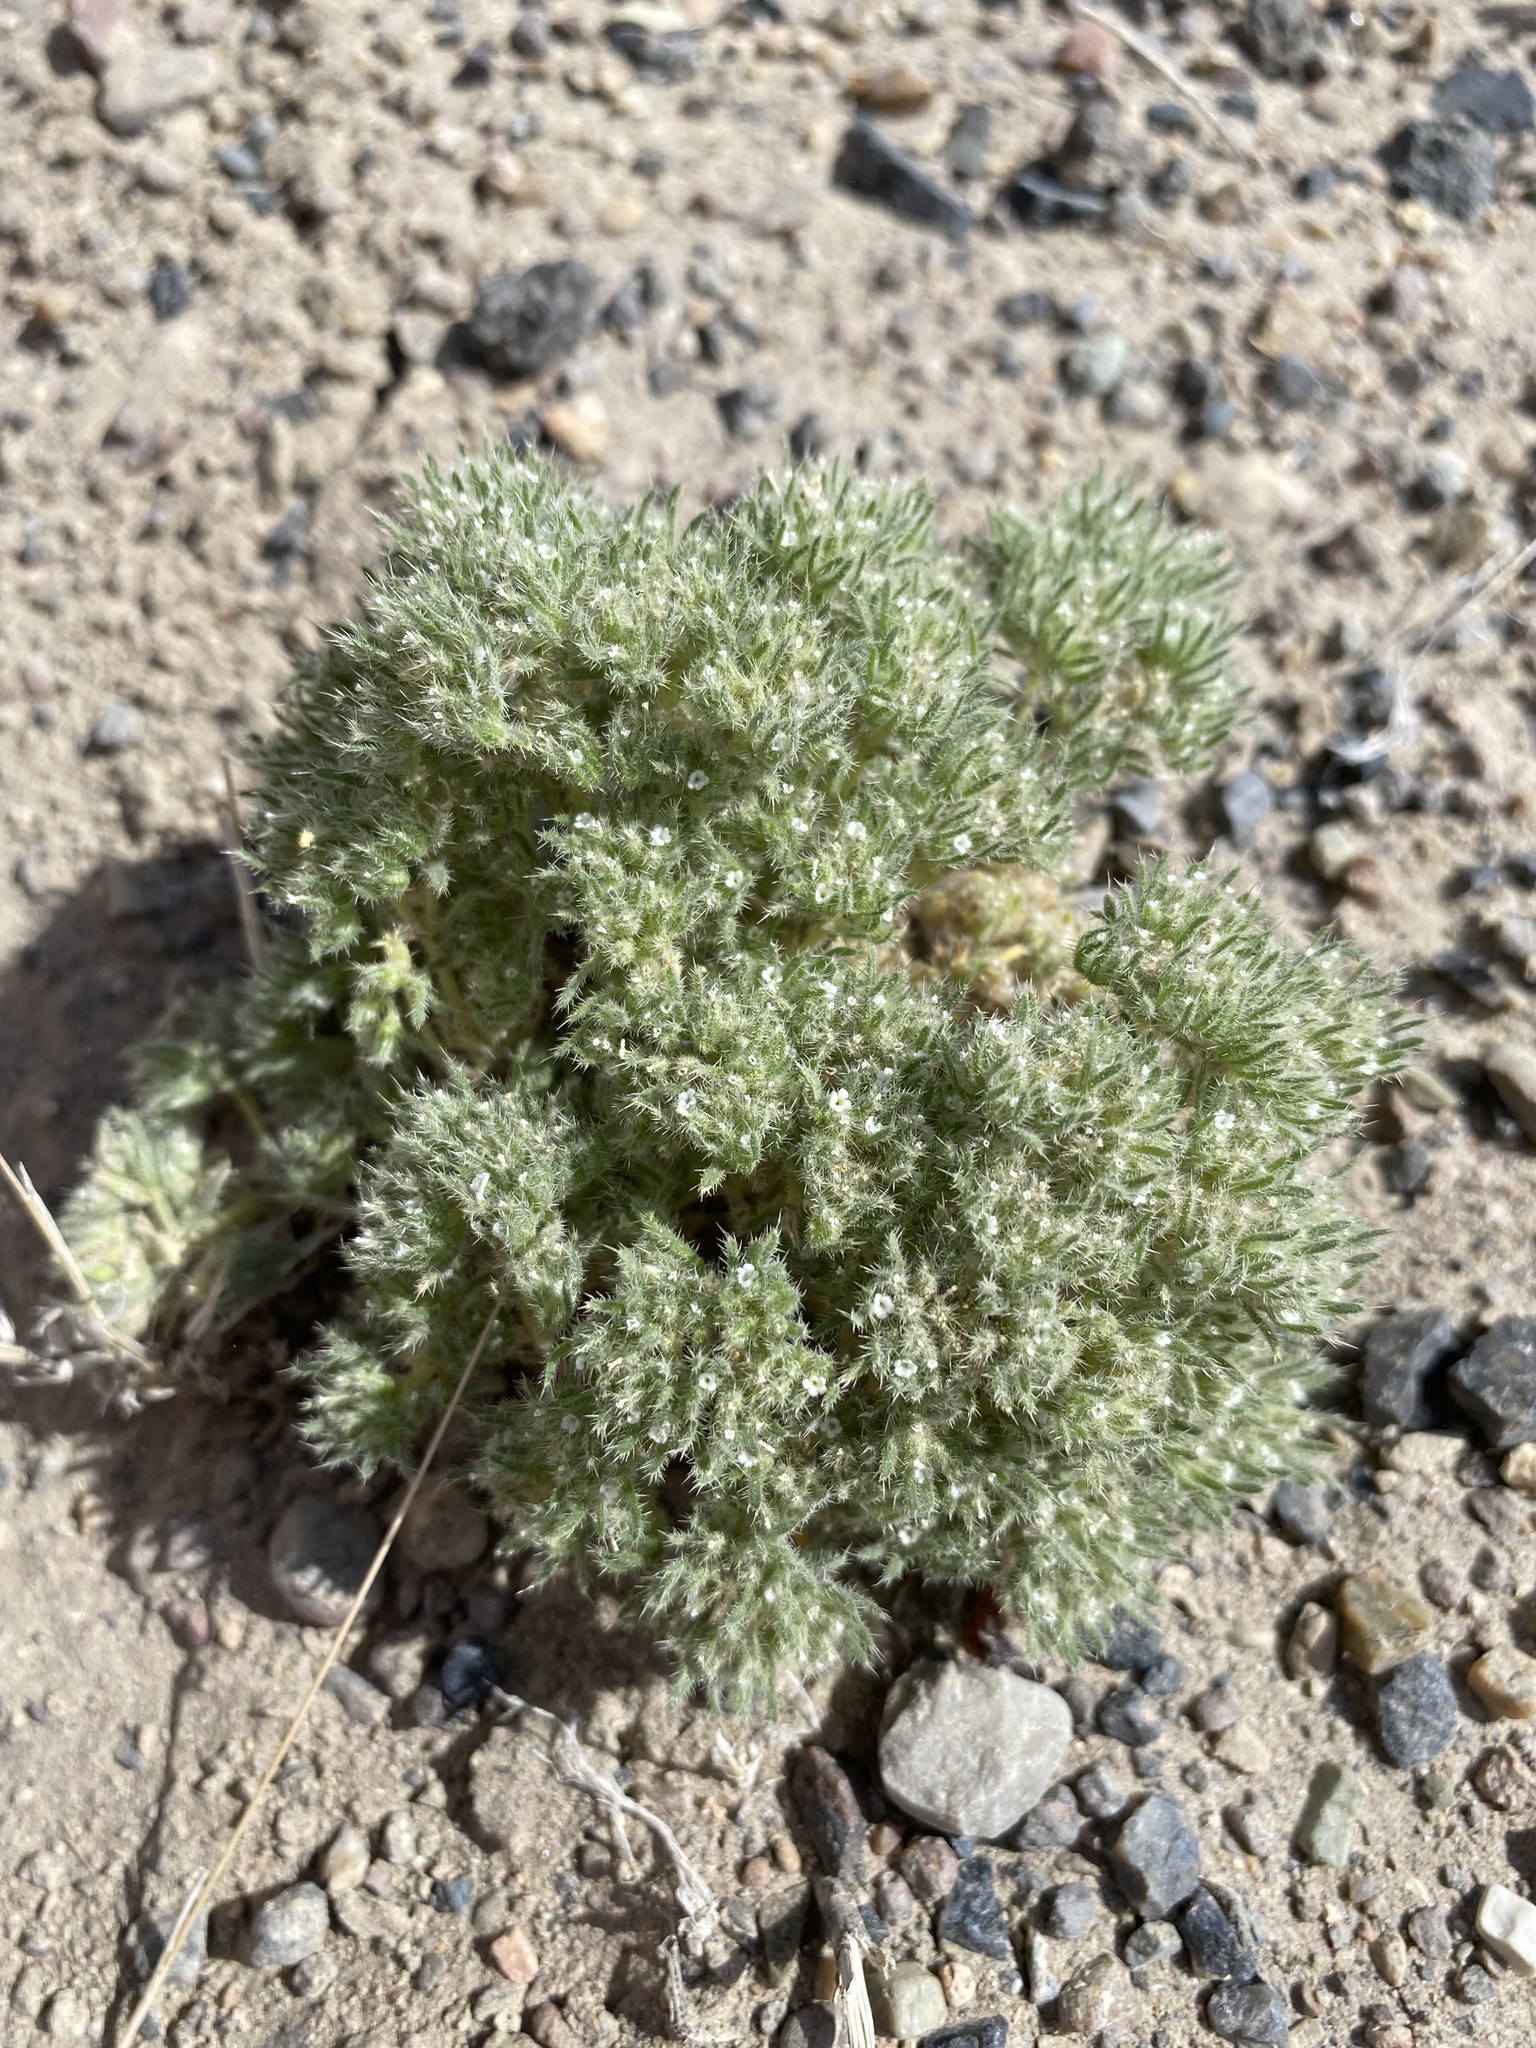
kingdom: Plantae
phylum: Tracheophyta
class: Magnoliopsida
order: Boraginales
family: Boraginaceae
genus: Greeneocharis
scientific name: Greeneocharis circumscissa
